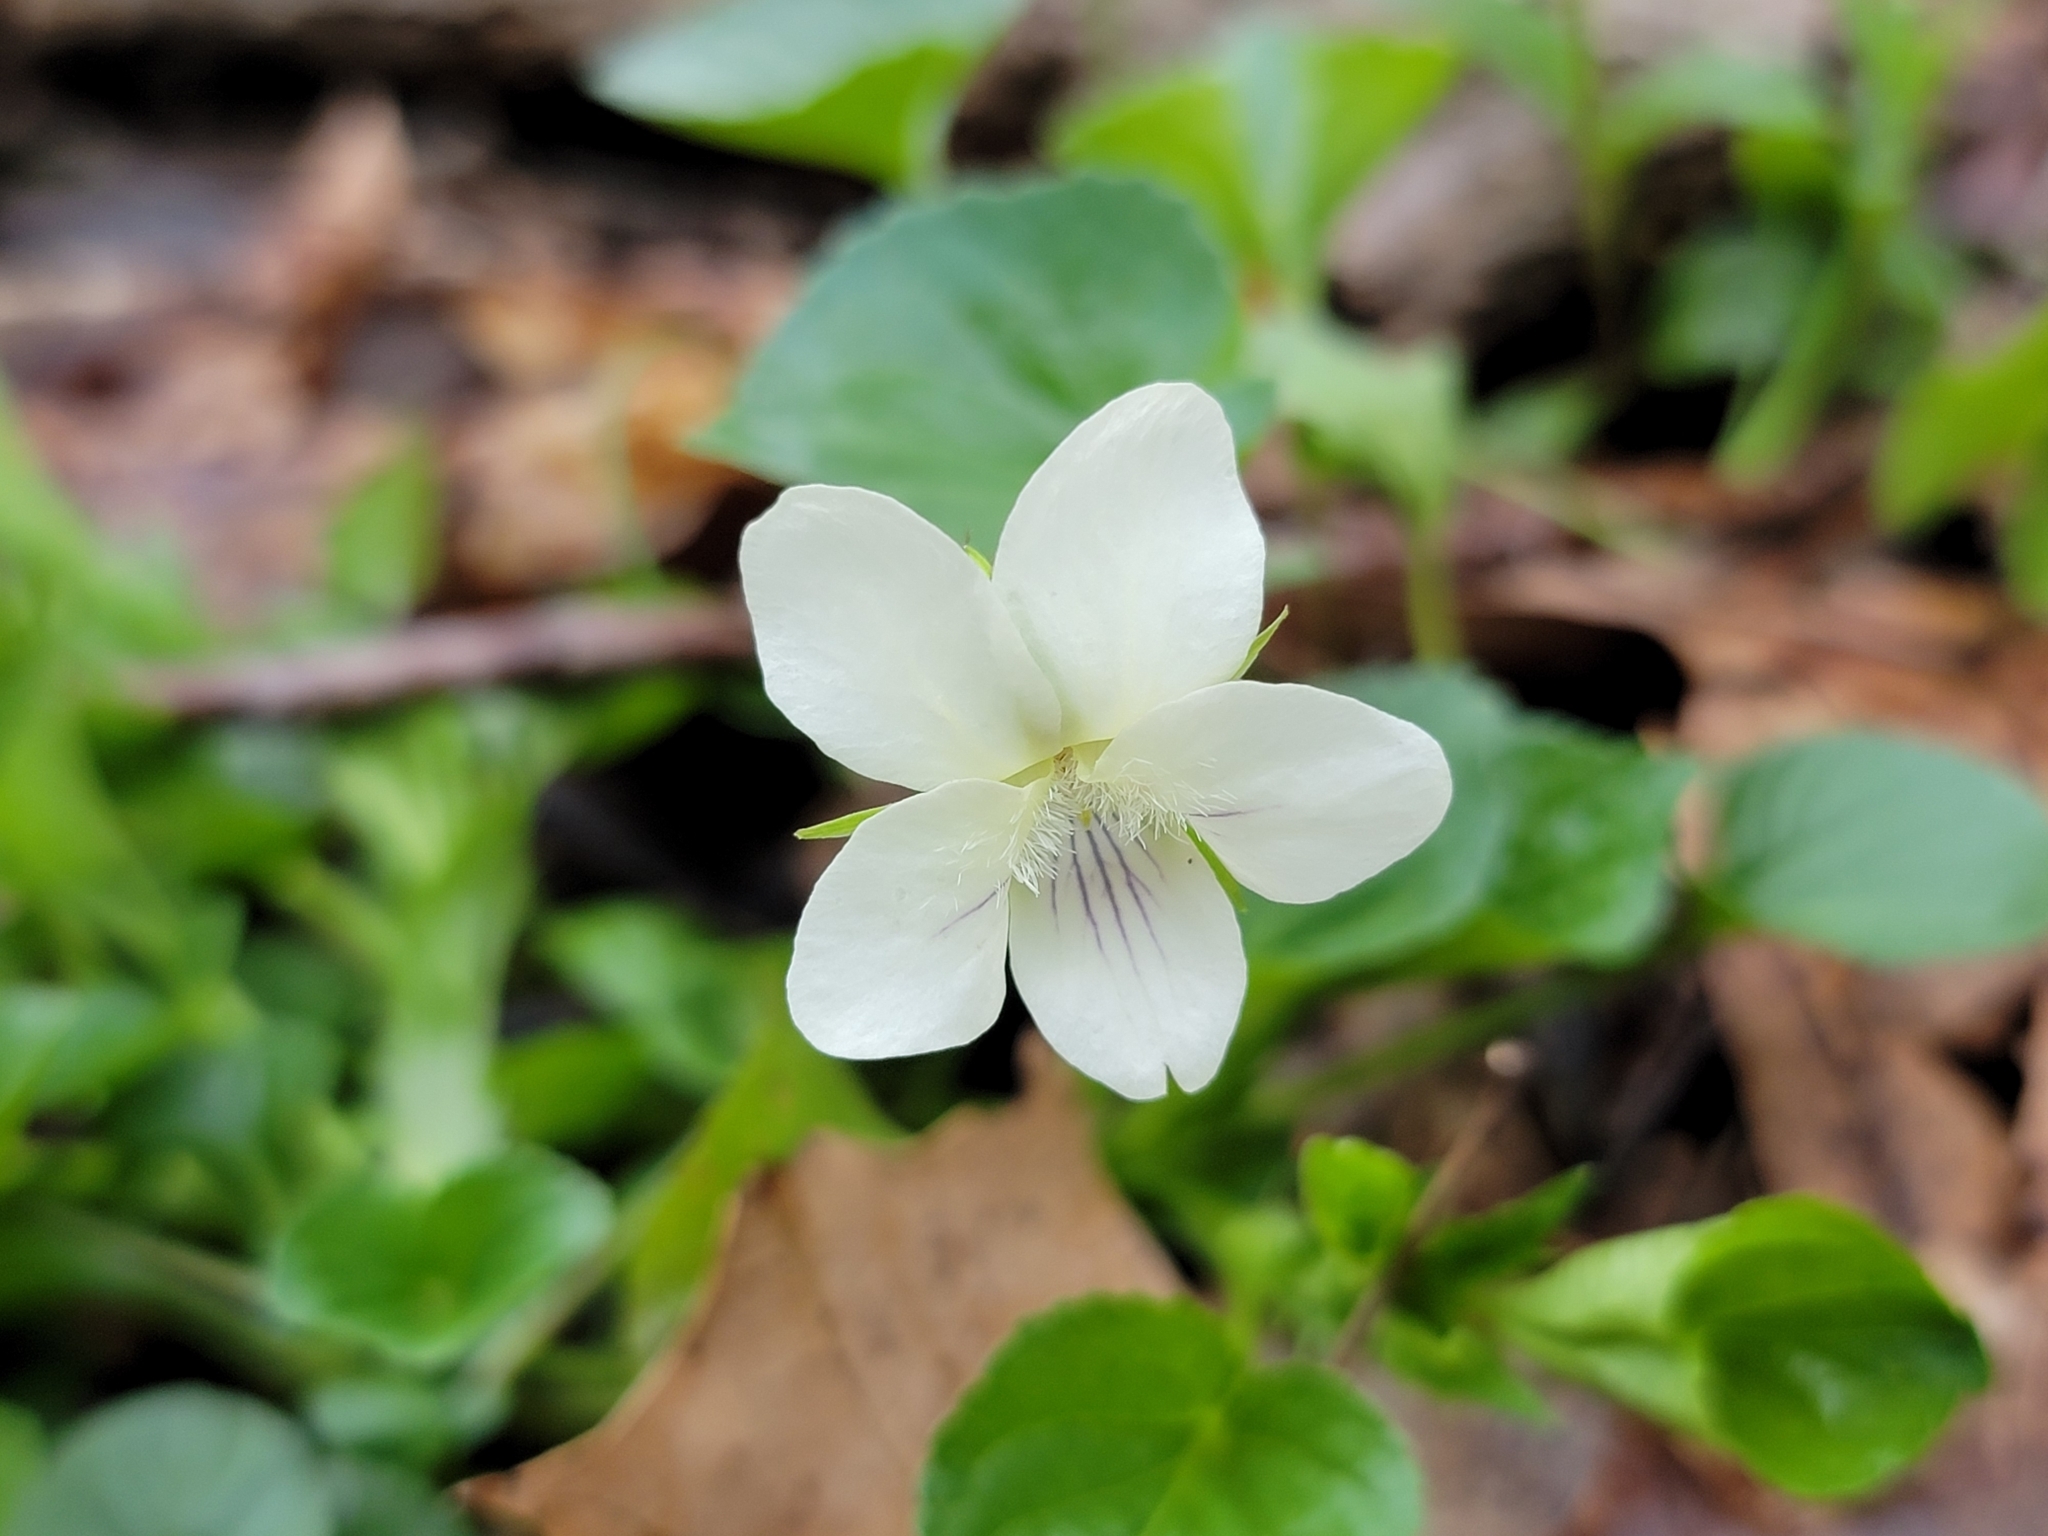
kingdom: Plantae
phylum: Tracheophyta
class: Magnoliopsida
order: Malpighiales
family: Violaceae
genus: Viola
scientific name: Viola striata
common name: Cream violet
